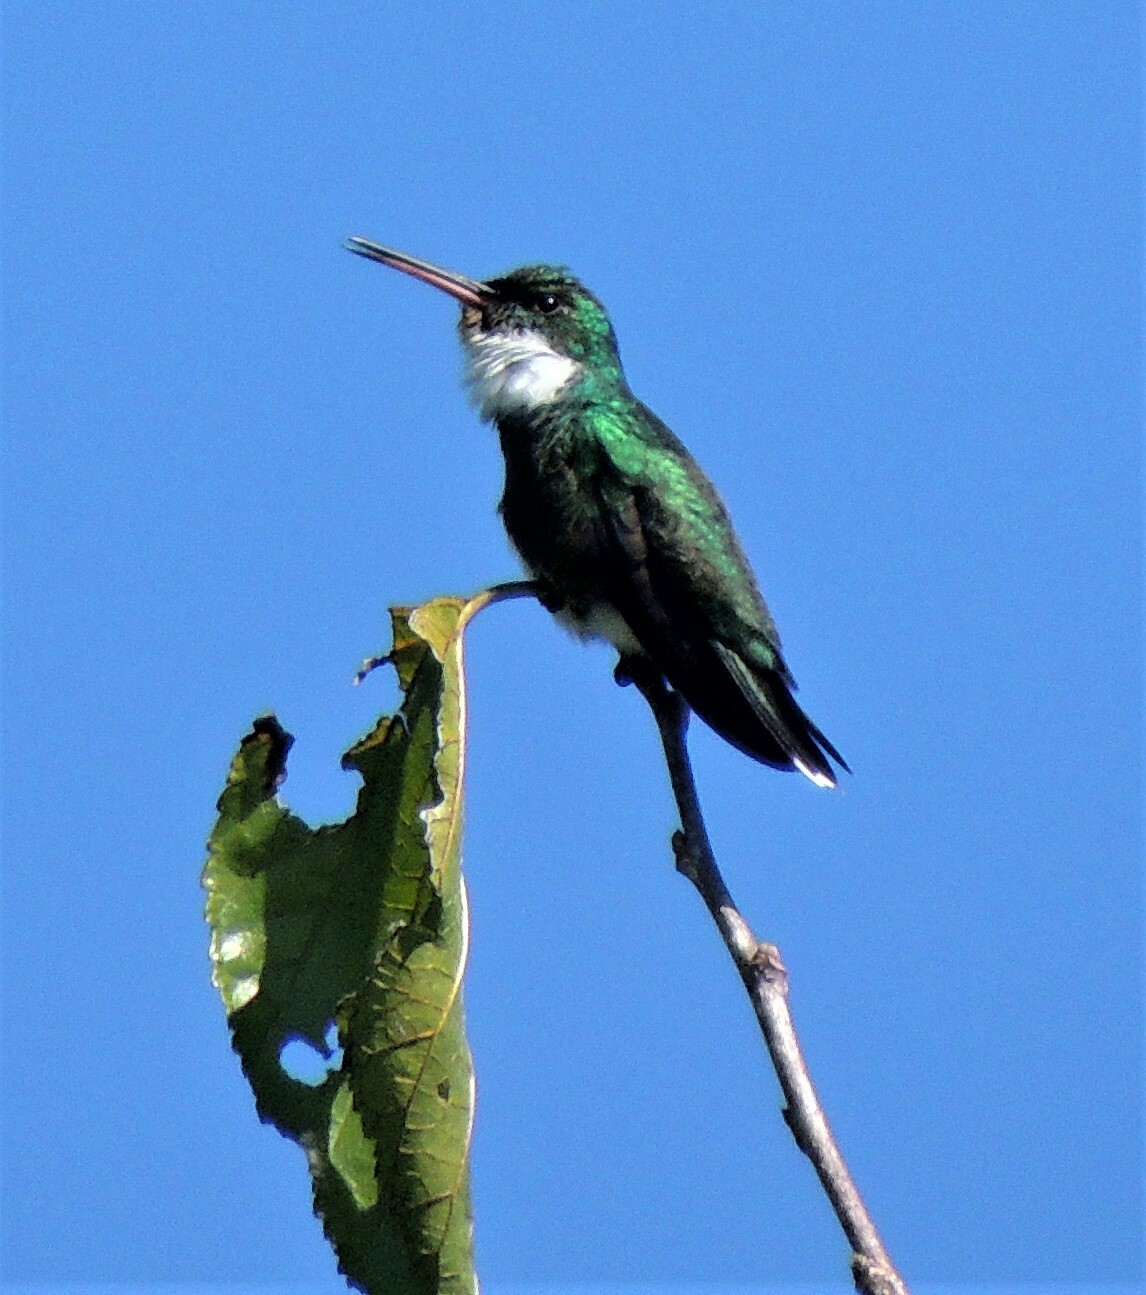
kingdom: Animalia
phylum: Chordata
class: Aves
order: Apodiformes
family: Trochilidae
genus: Leucochloris
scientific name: Leucochloris albicollis
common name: White-throated hummingbird
